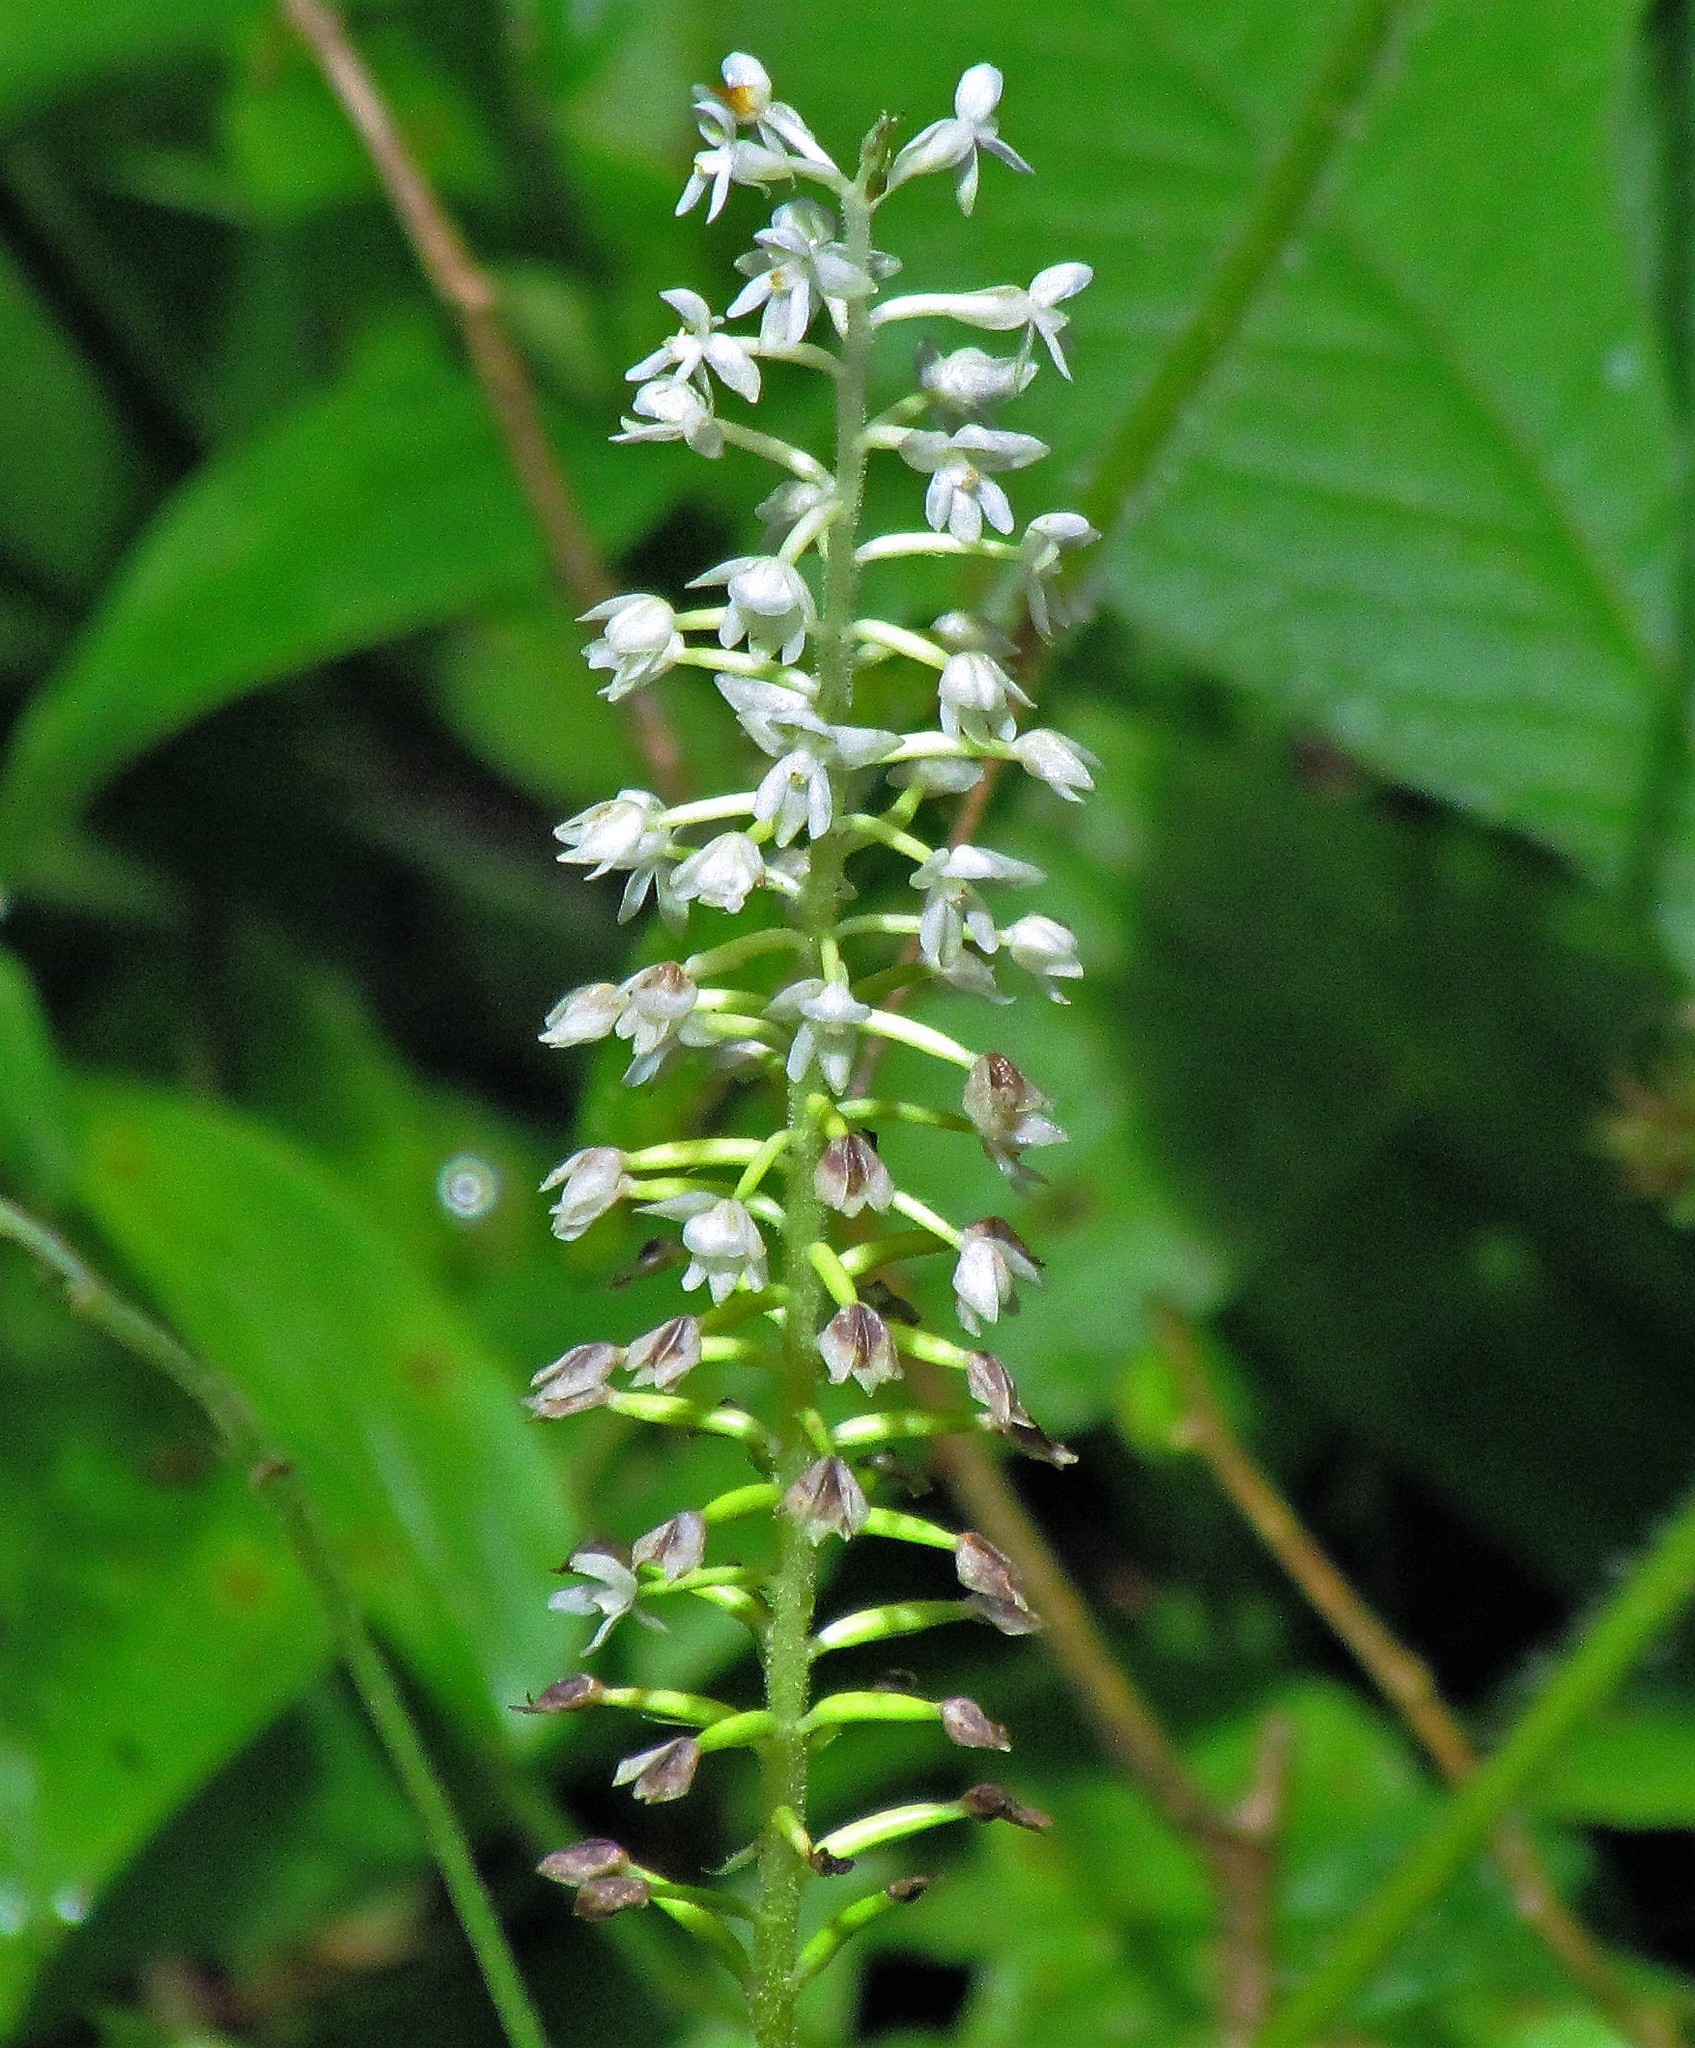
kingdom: Plantae
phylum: Tracheophyta
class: Liliopsida
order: Asparagales
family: Orchidaceae
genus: Cranichis
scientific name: Cranichis candida
